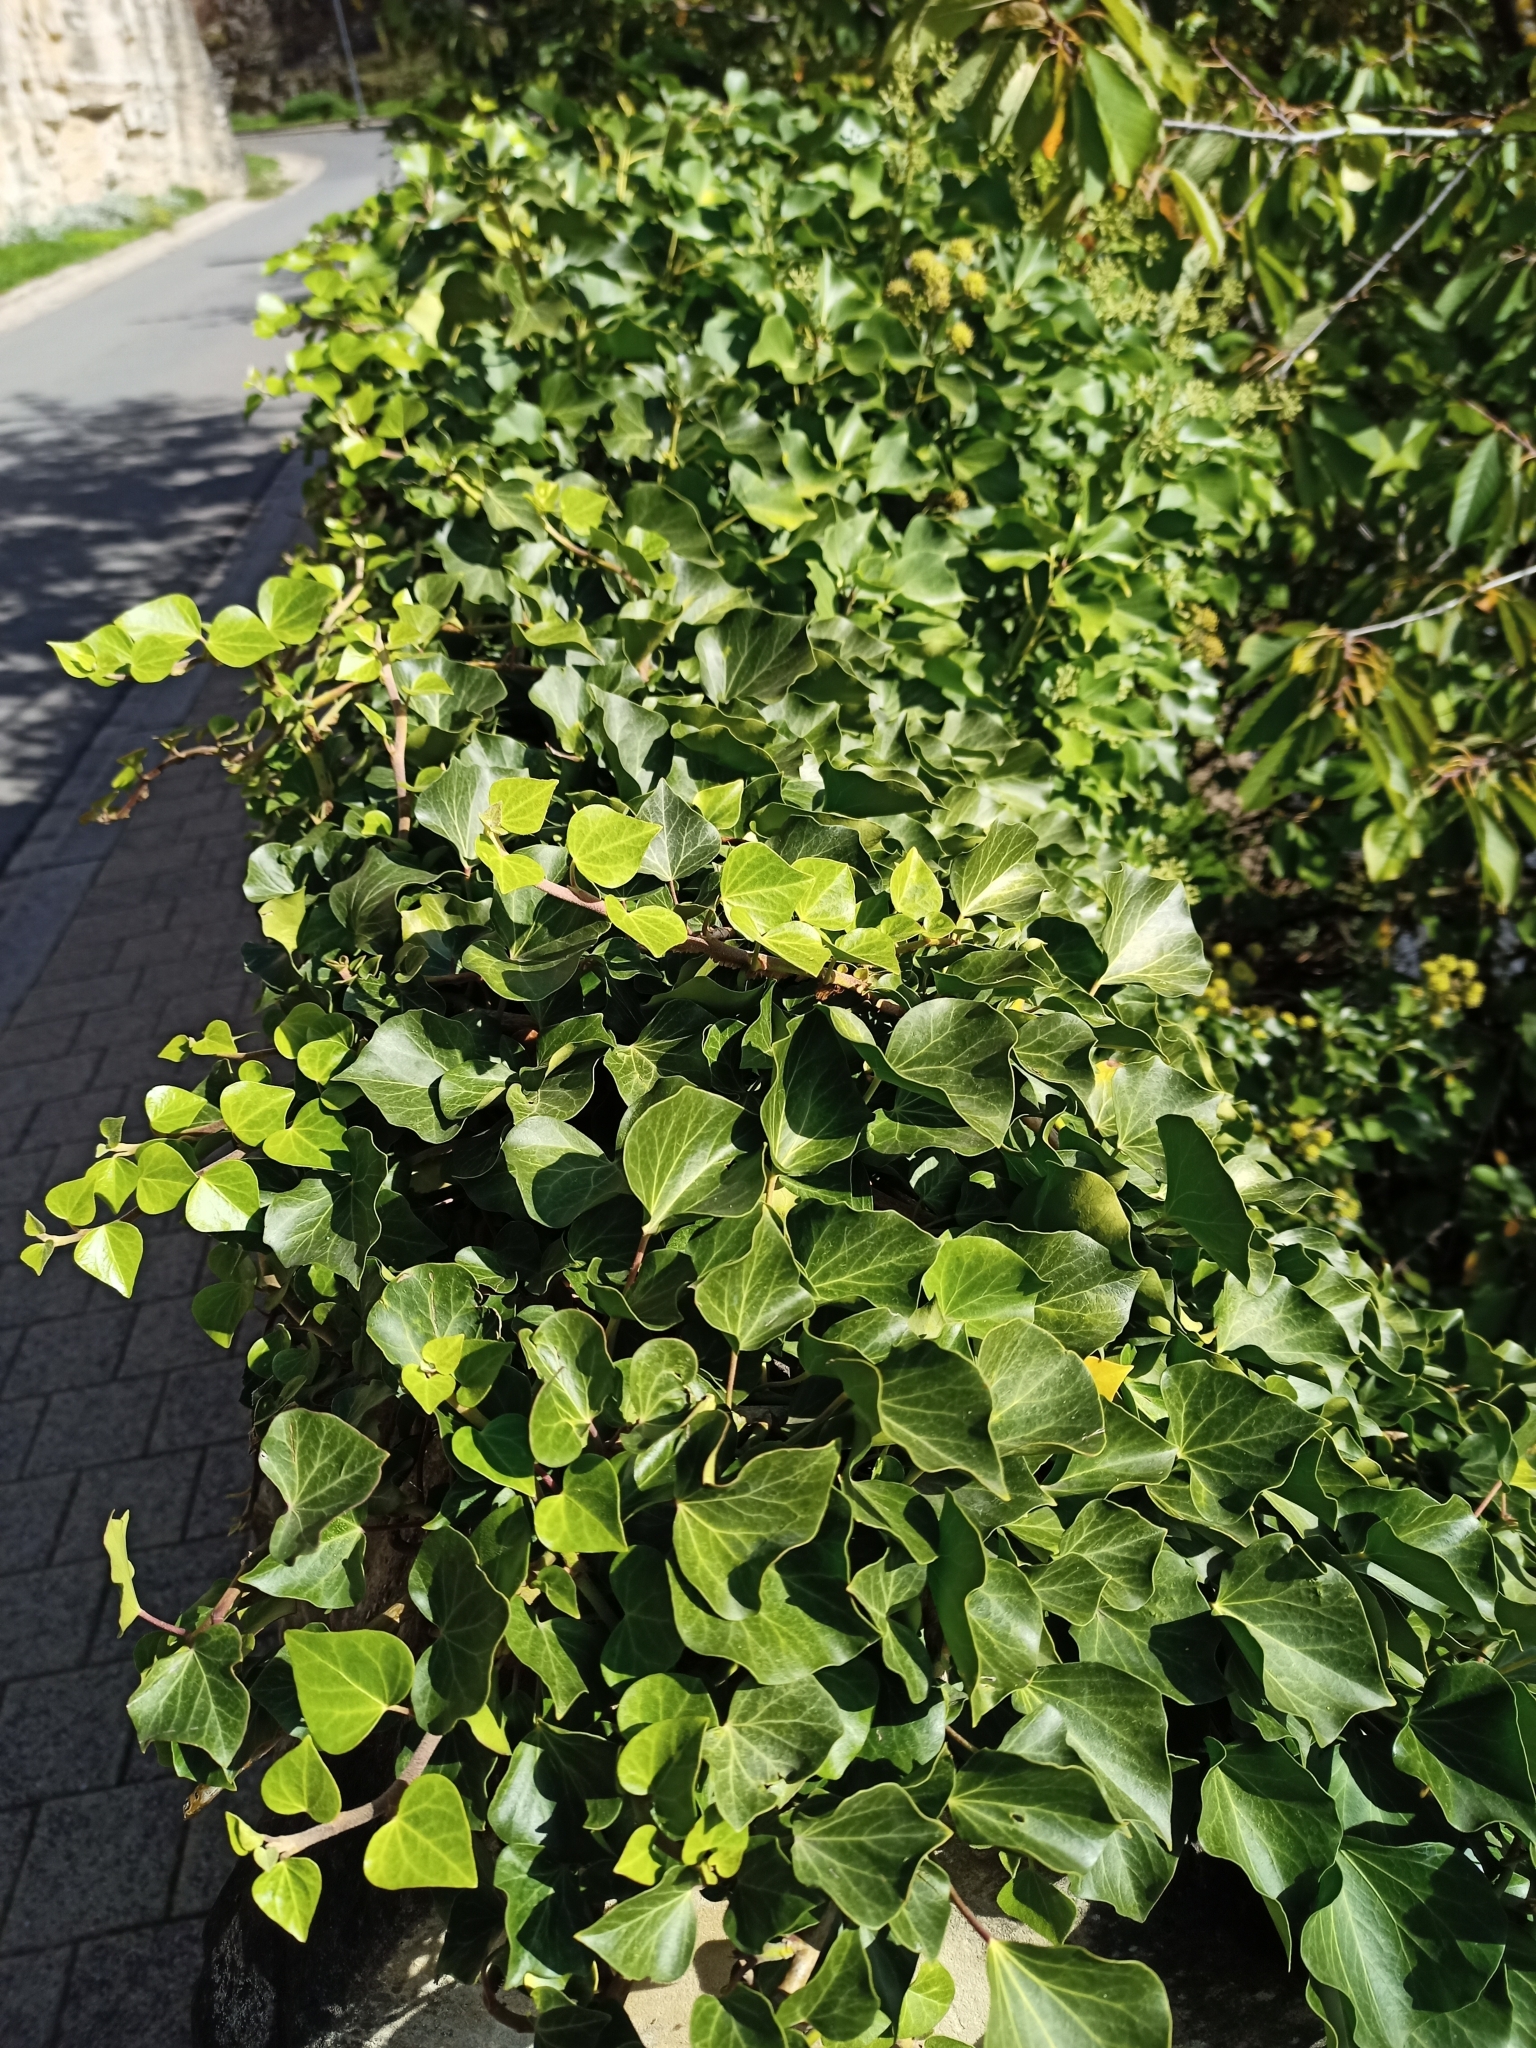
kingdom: Plantae
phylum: Tracheophyta
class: Magnoliopsida
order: Apiales
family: Araliaceae
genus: Hedera
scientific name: Hedera helix
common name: Ivy
